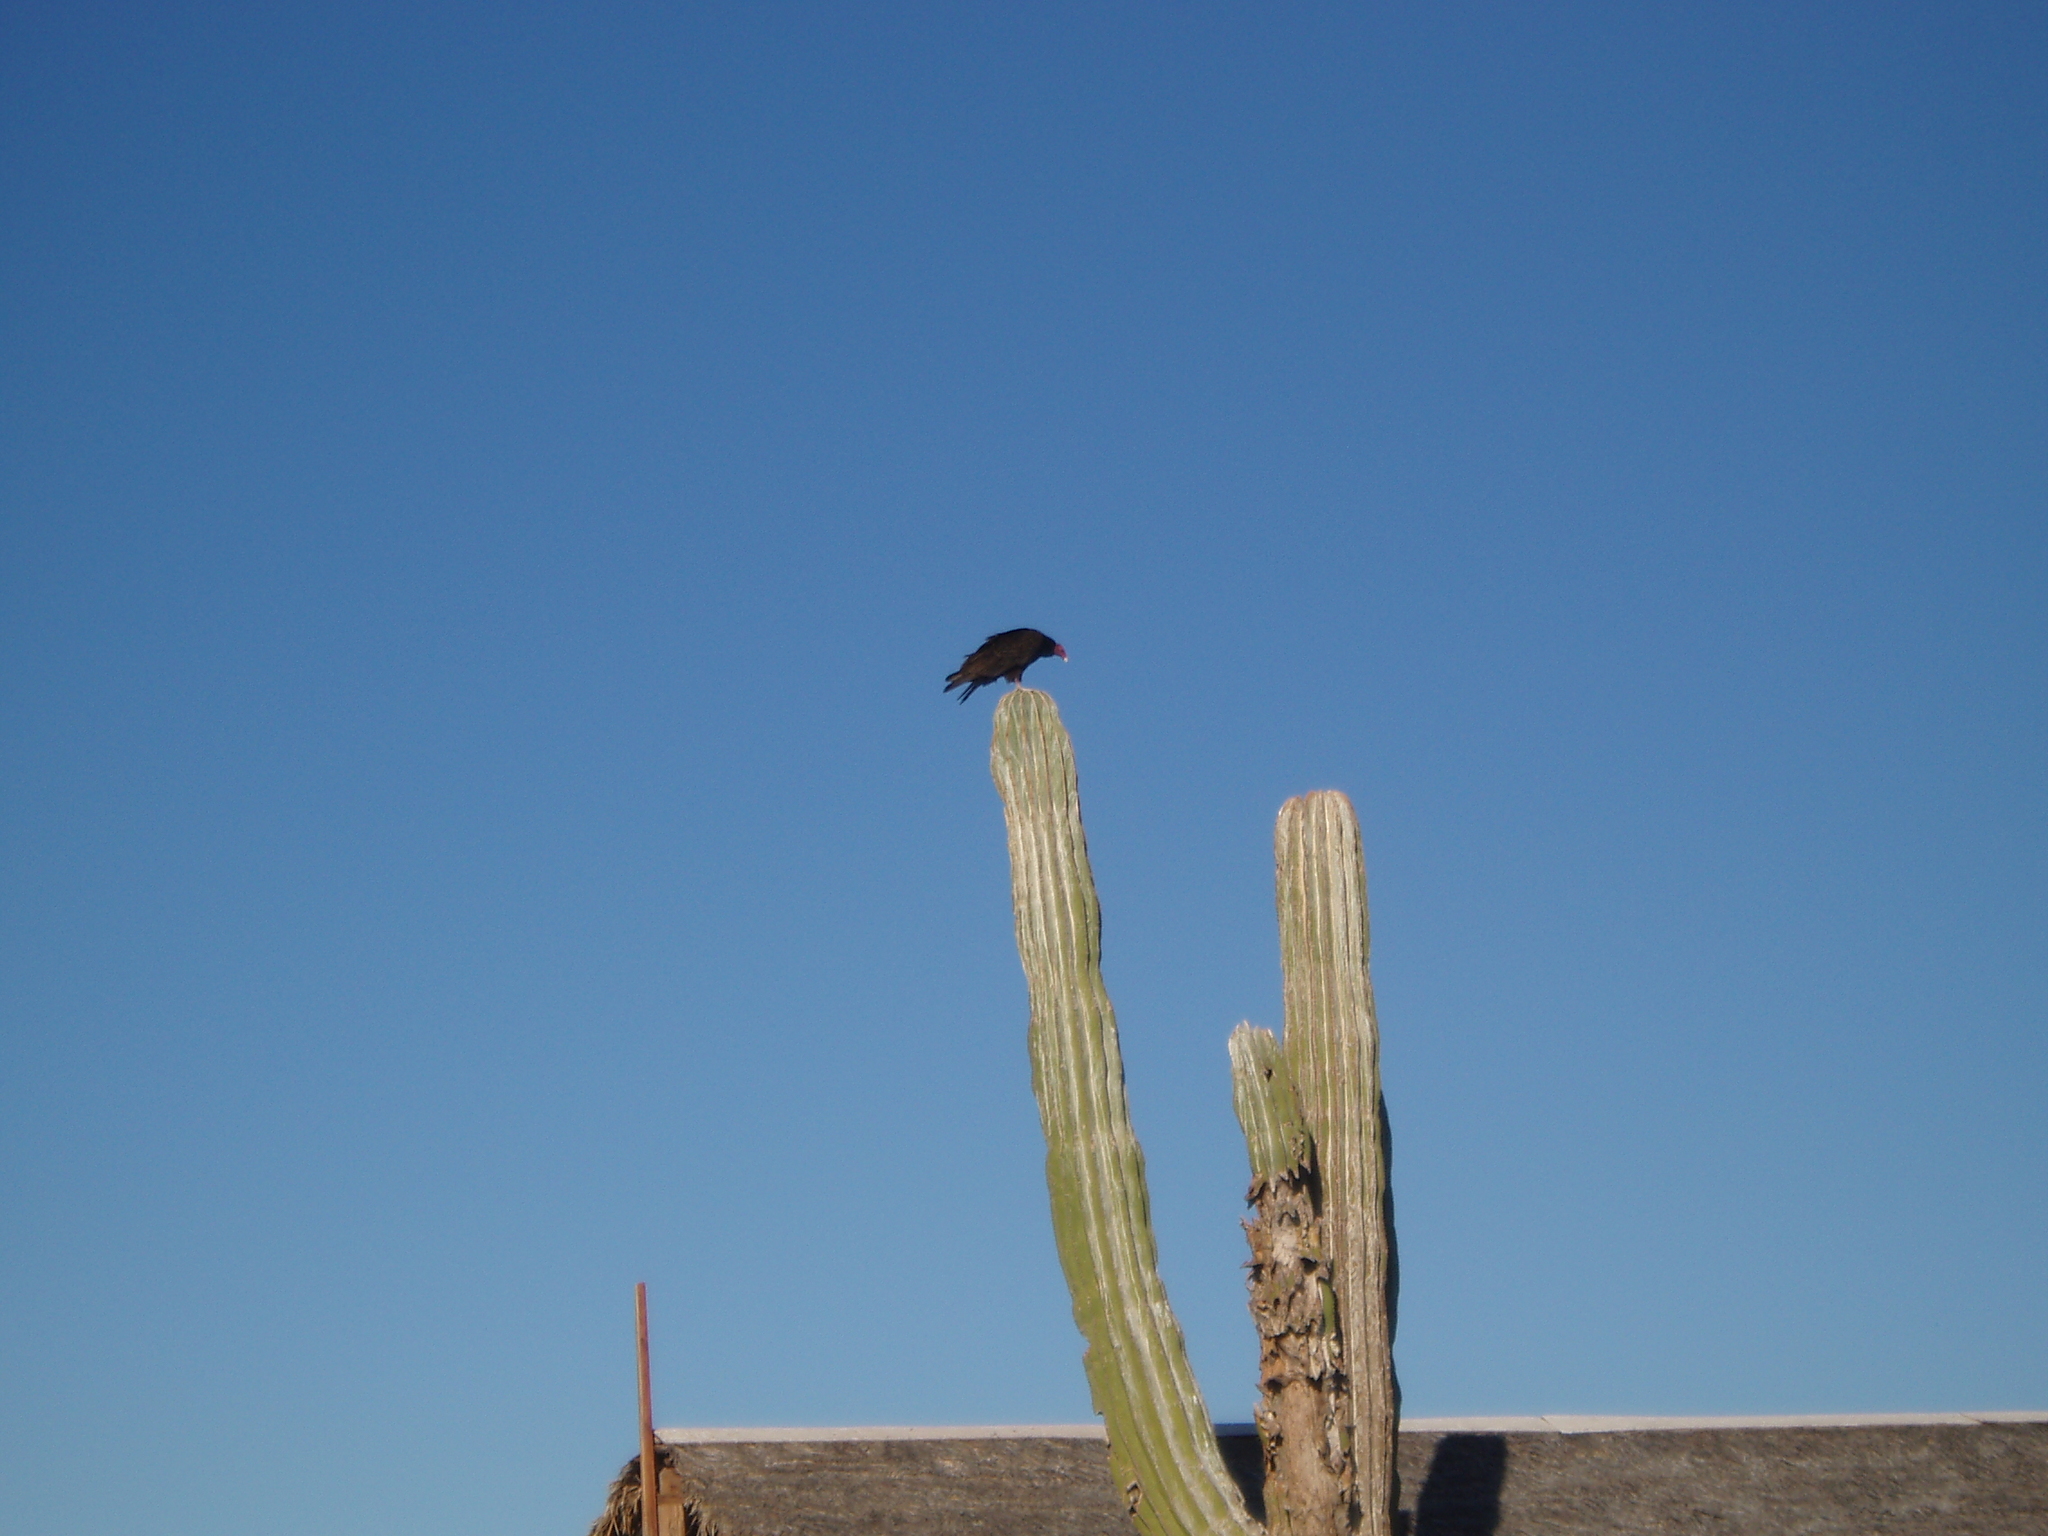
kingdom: Animalia
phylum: Chordata
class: Aves
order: Accipitriformes
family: Cathartidae
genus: Cathartes
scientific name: Cathartes aura
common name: Turkey vulture
